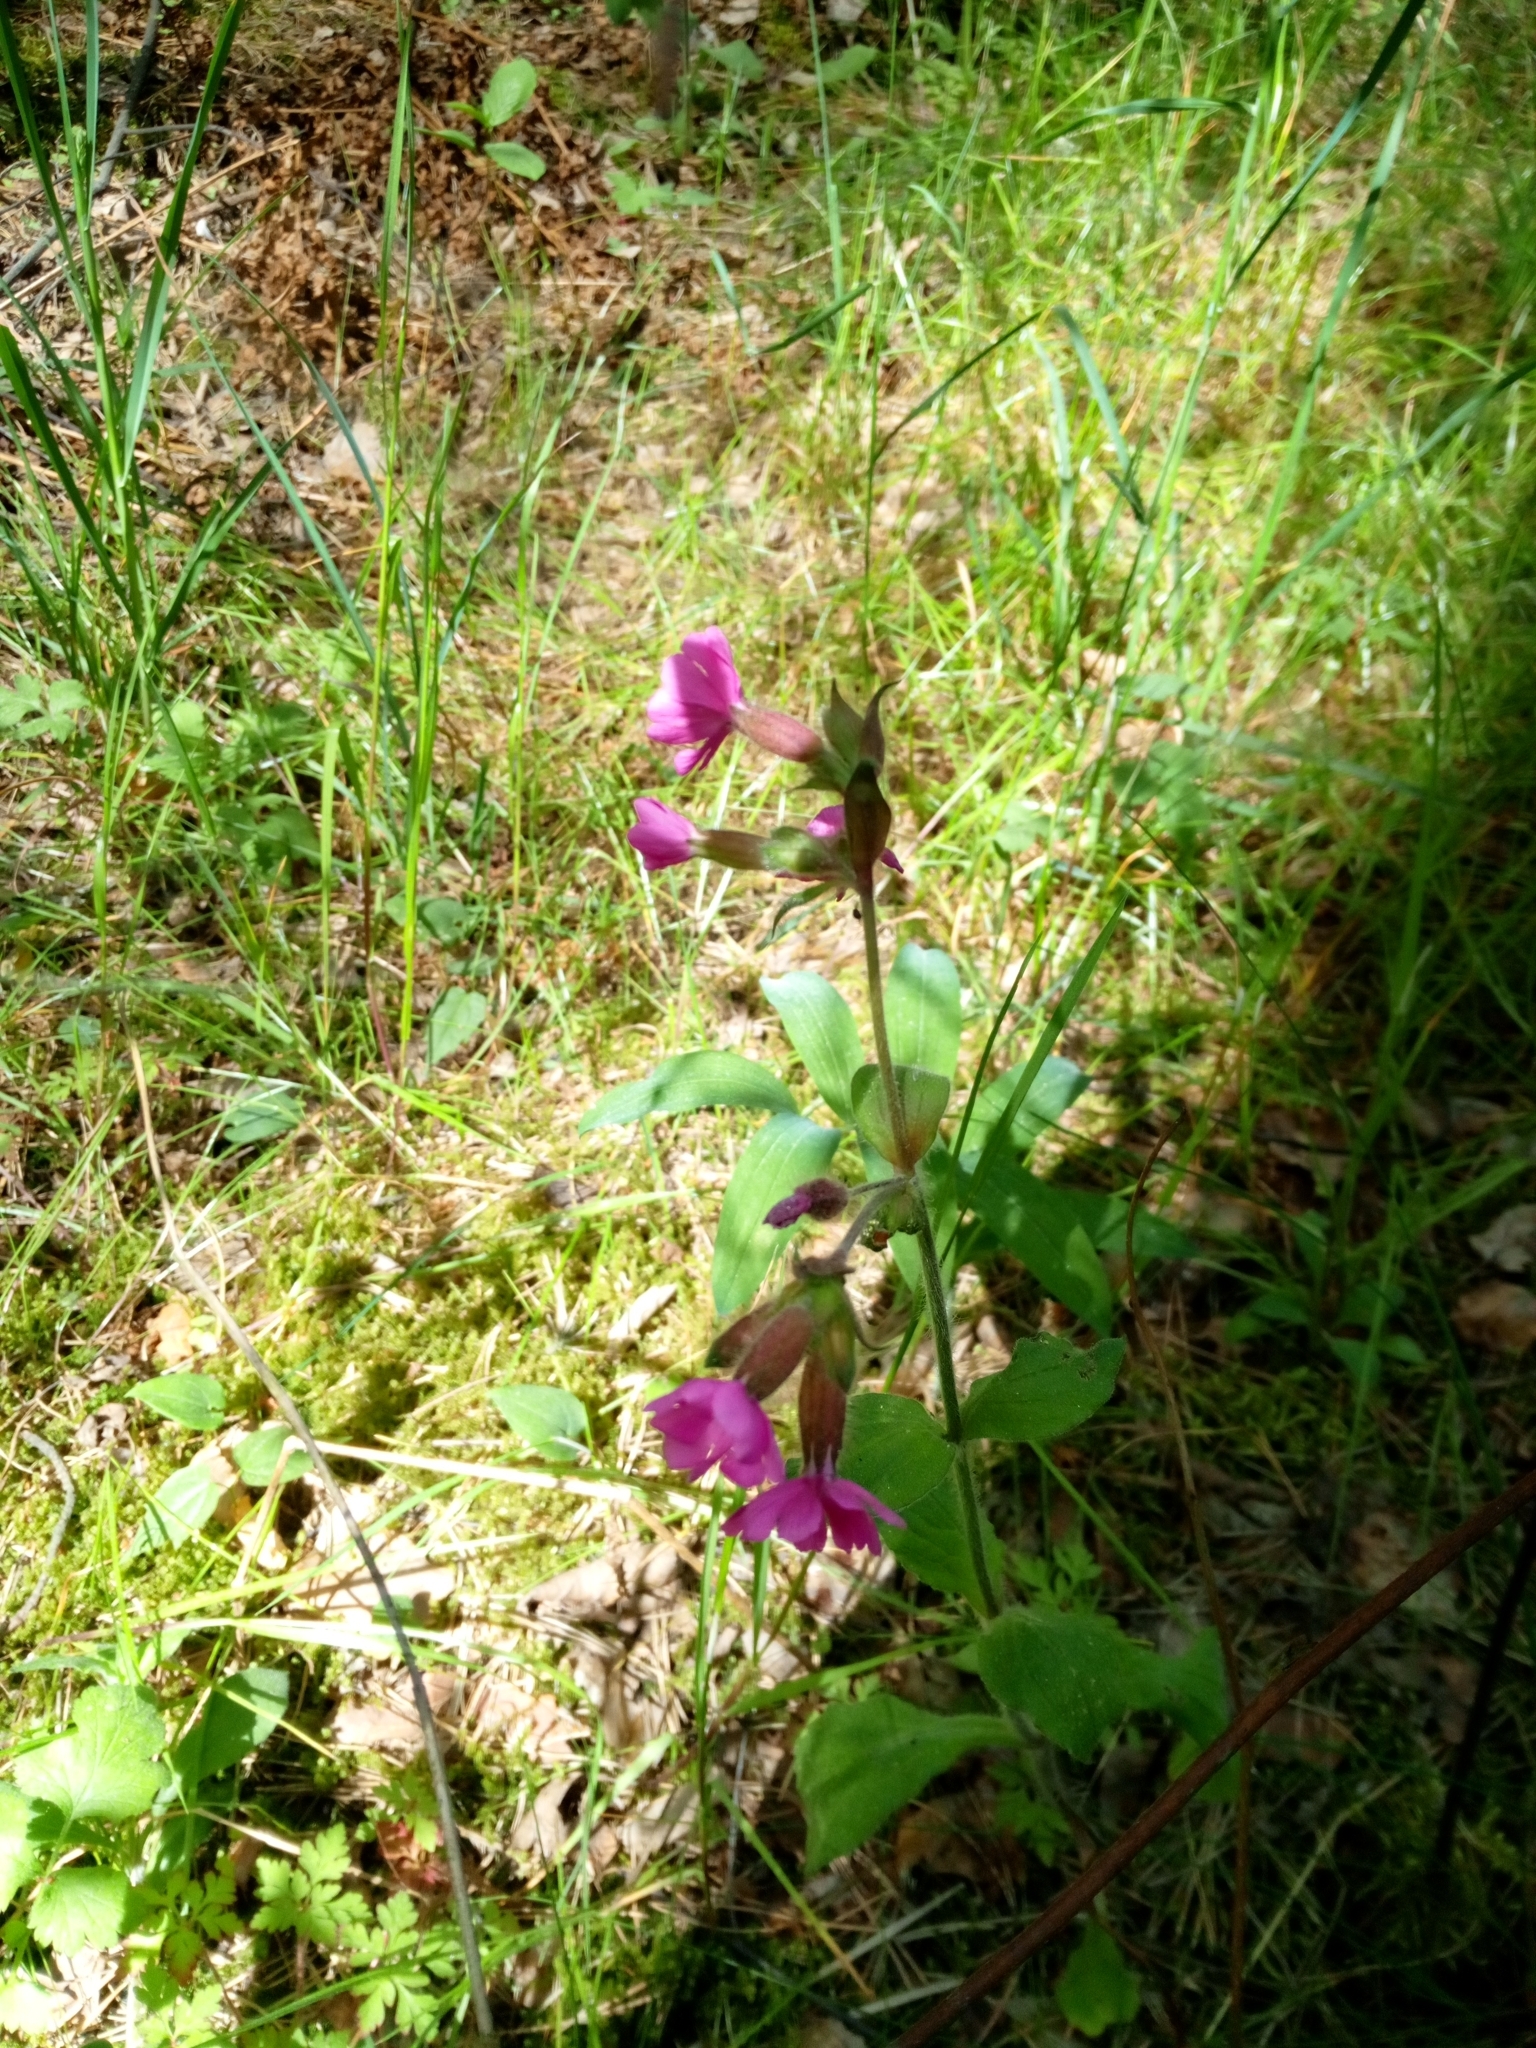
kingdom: Plantae
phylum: Tracheophyta
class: Magnoliopsida
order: Caryophyllales
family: Caryophyllaceae
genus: Silene
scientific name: Silene dioica
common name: Red campion
